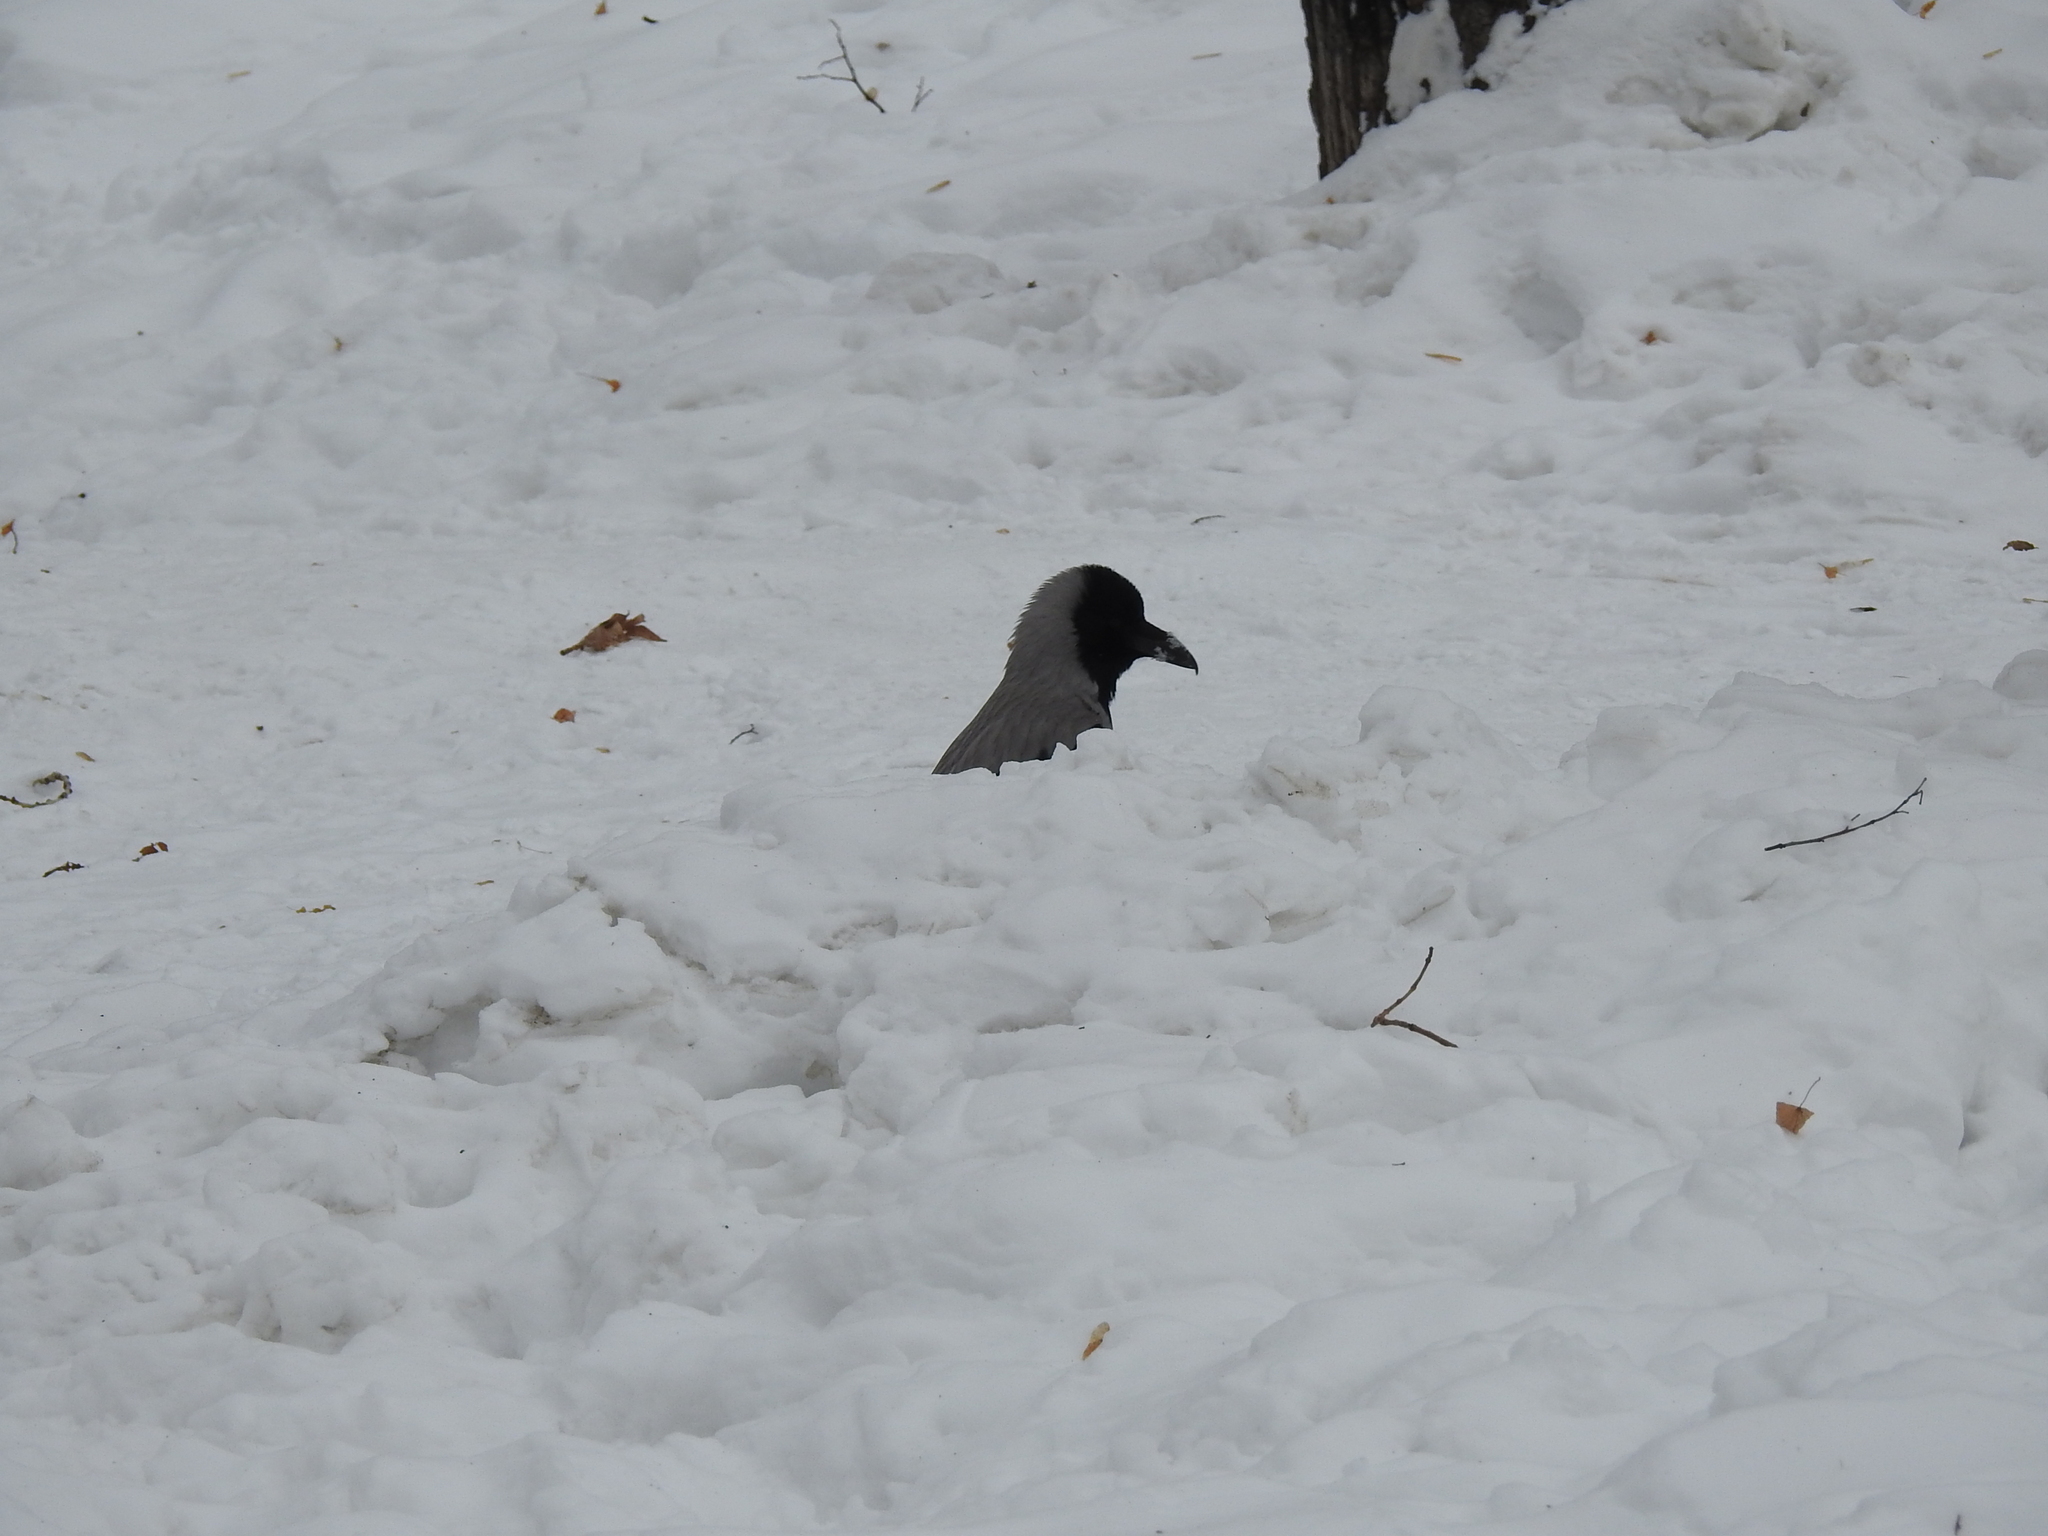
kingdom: Animalia
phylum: Chordata
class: Aves
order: Passeriformes
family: Corvidae
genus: Corvus
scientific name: Corvus cornix
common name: Hooded crow
